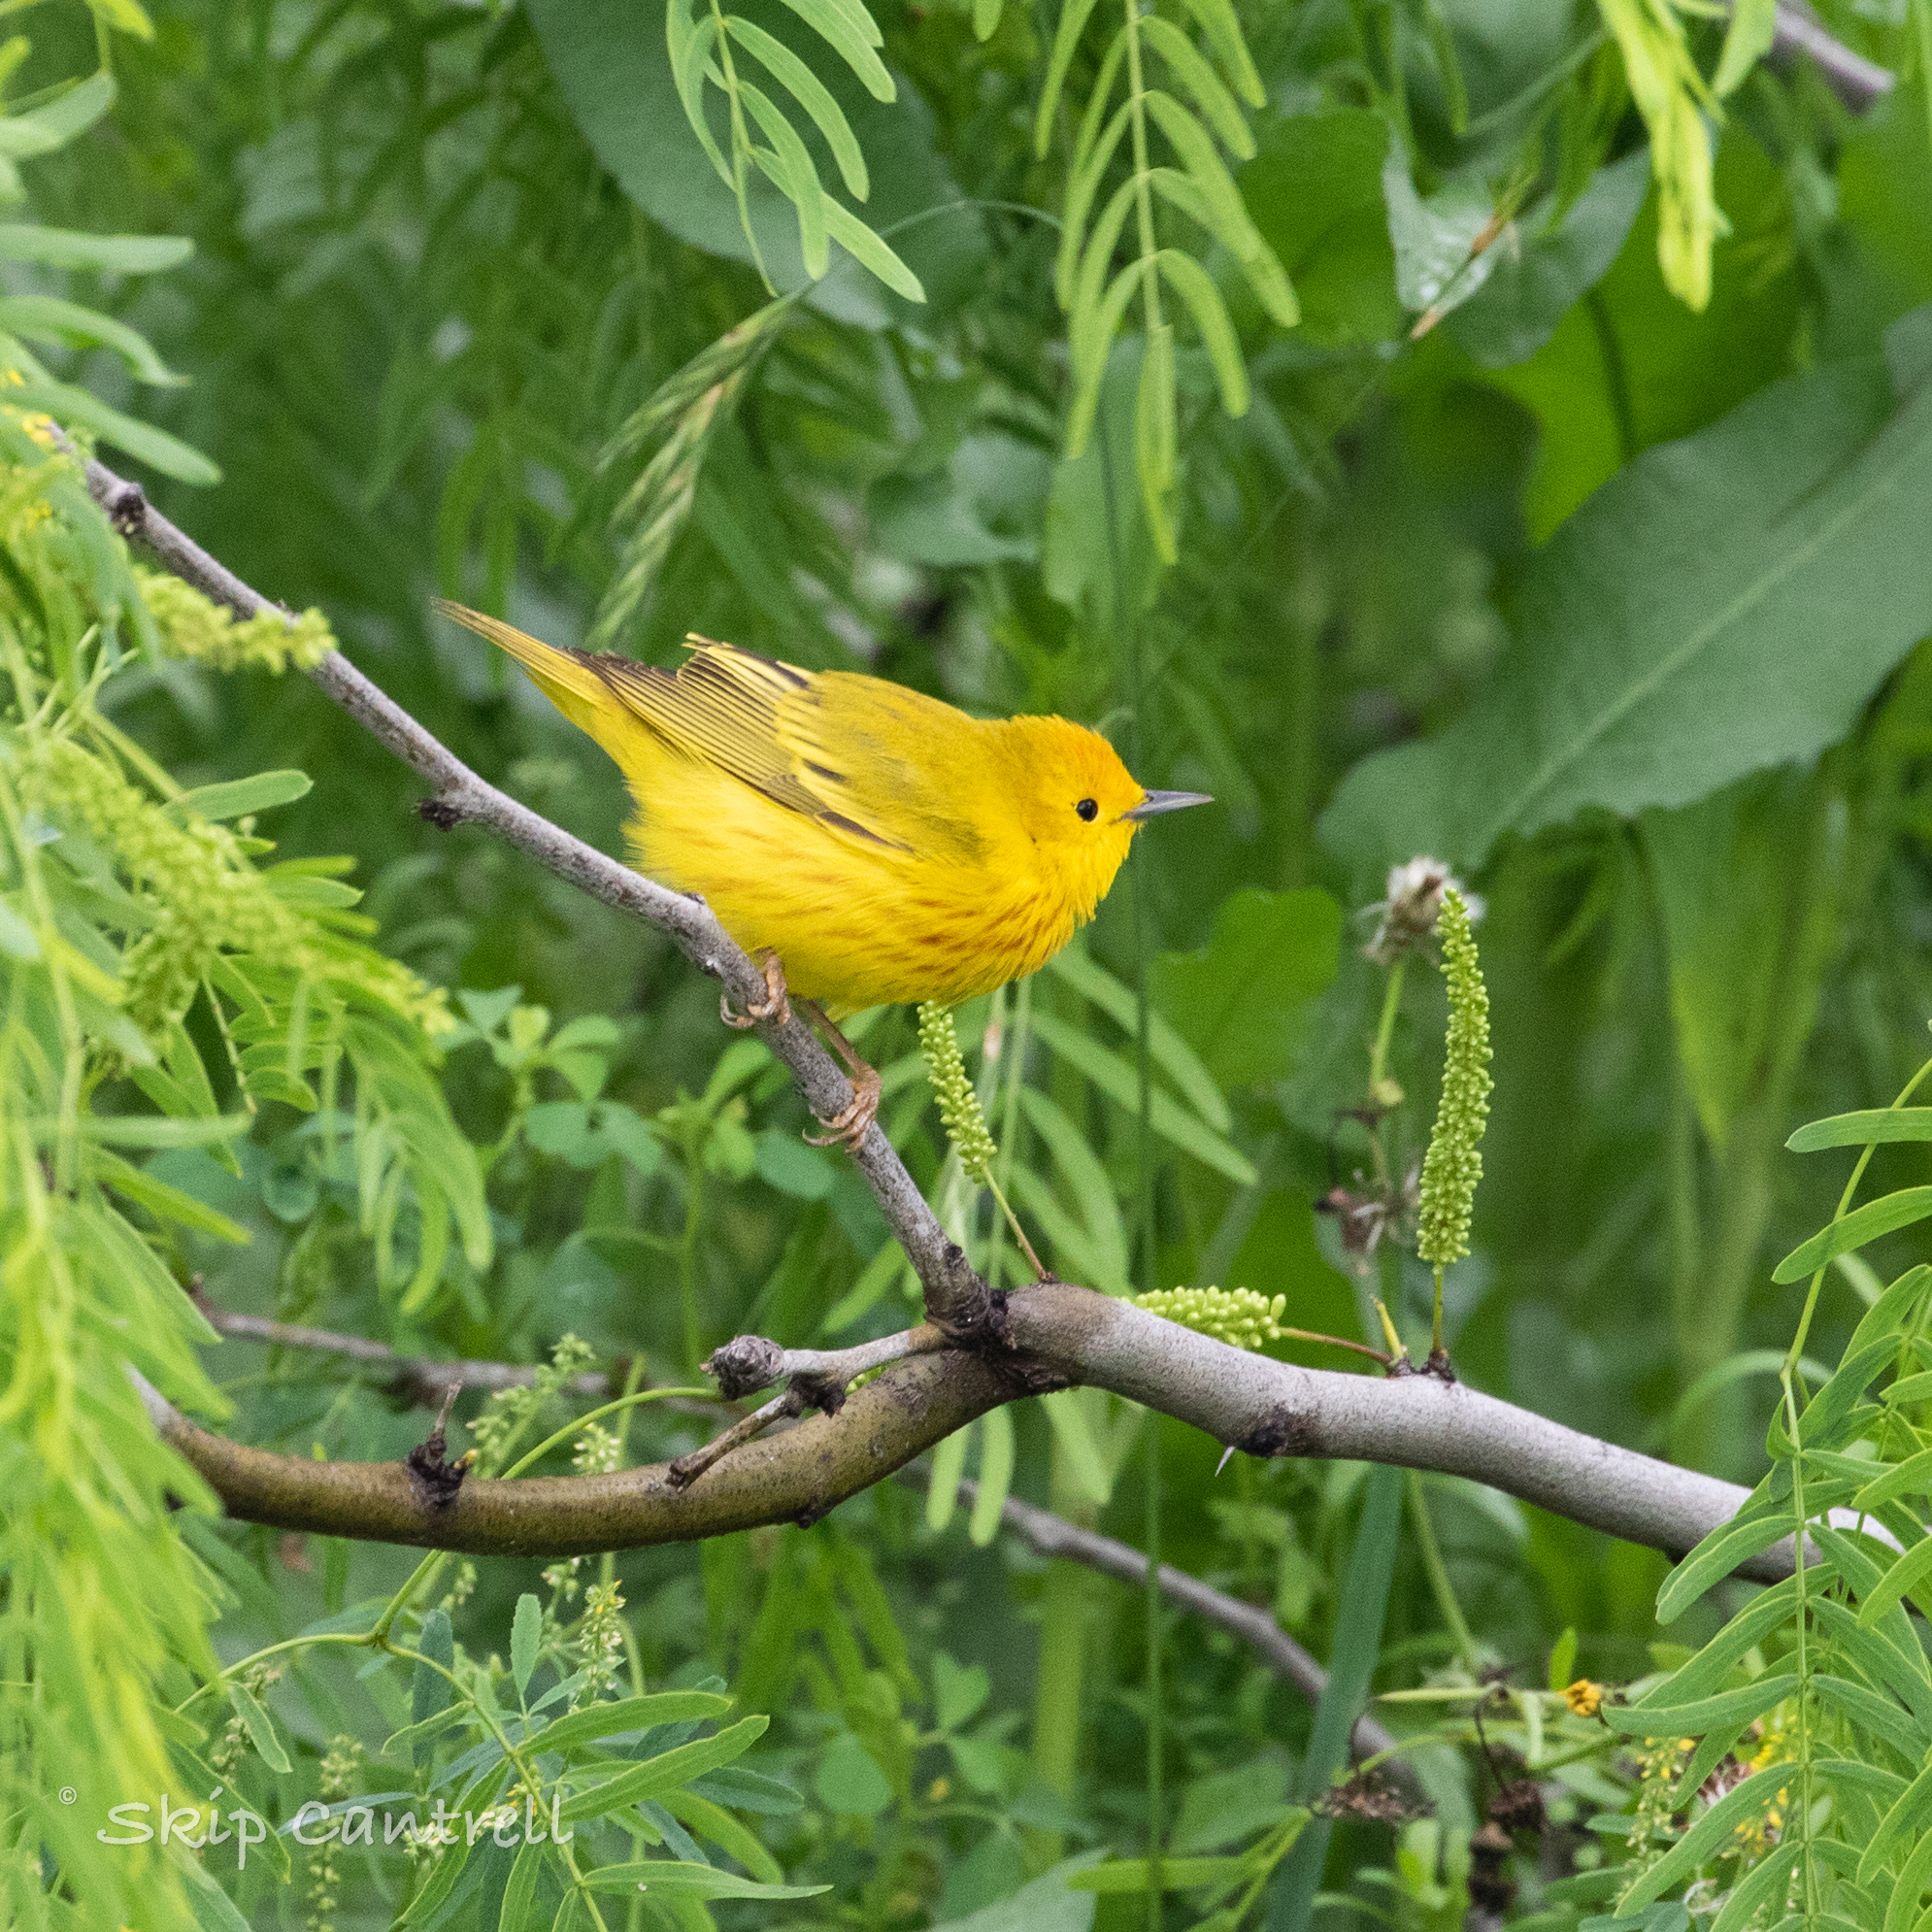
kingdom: Animalia
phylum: Chordata
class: Aves
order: Passeriformes
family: Parulidae
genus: Setophaga
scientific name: Setophaga petechia
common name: Yellow warbler
